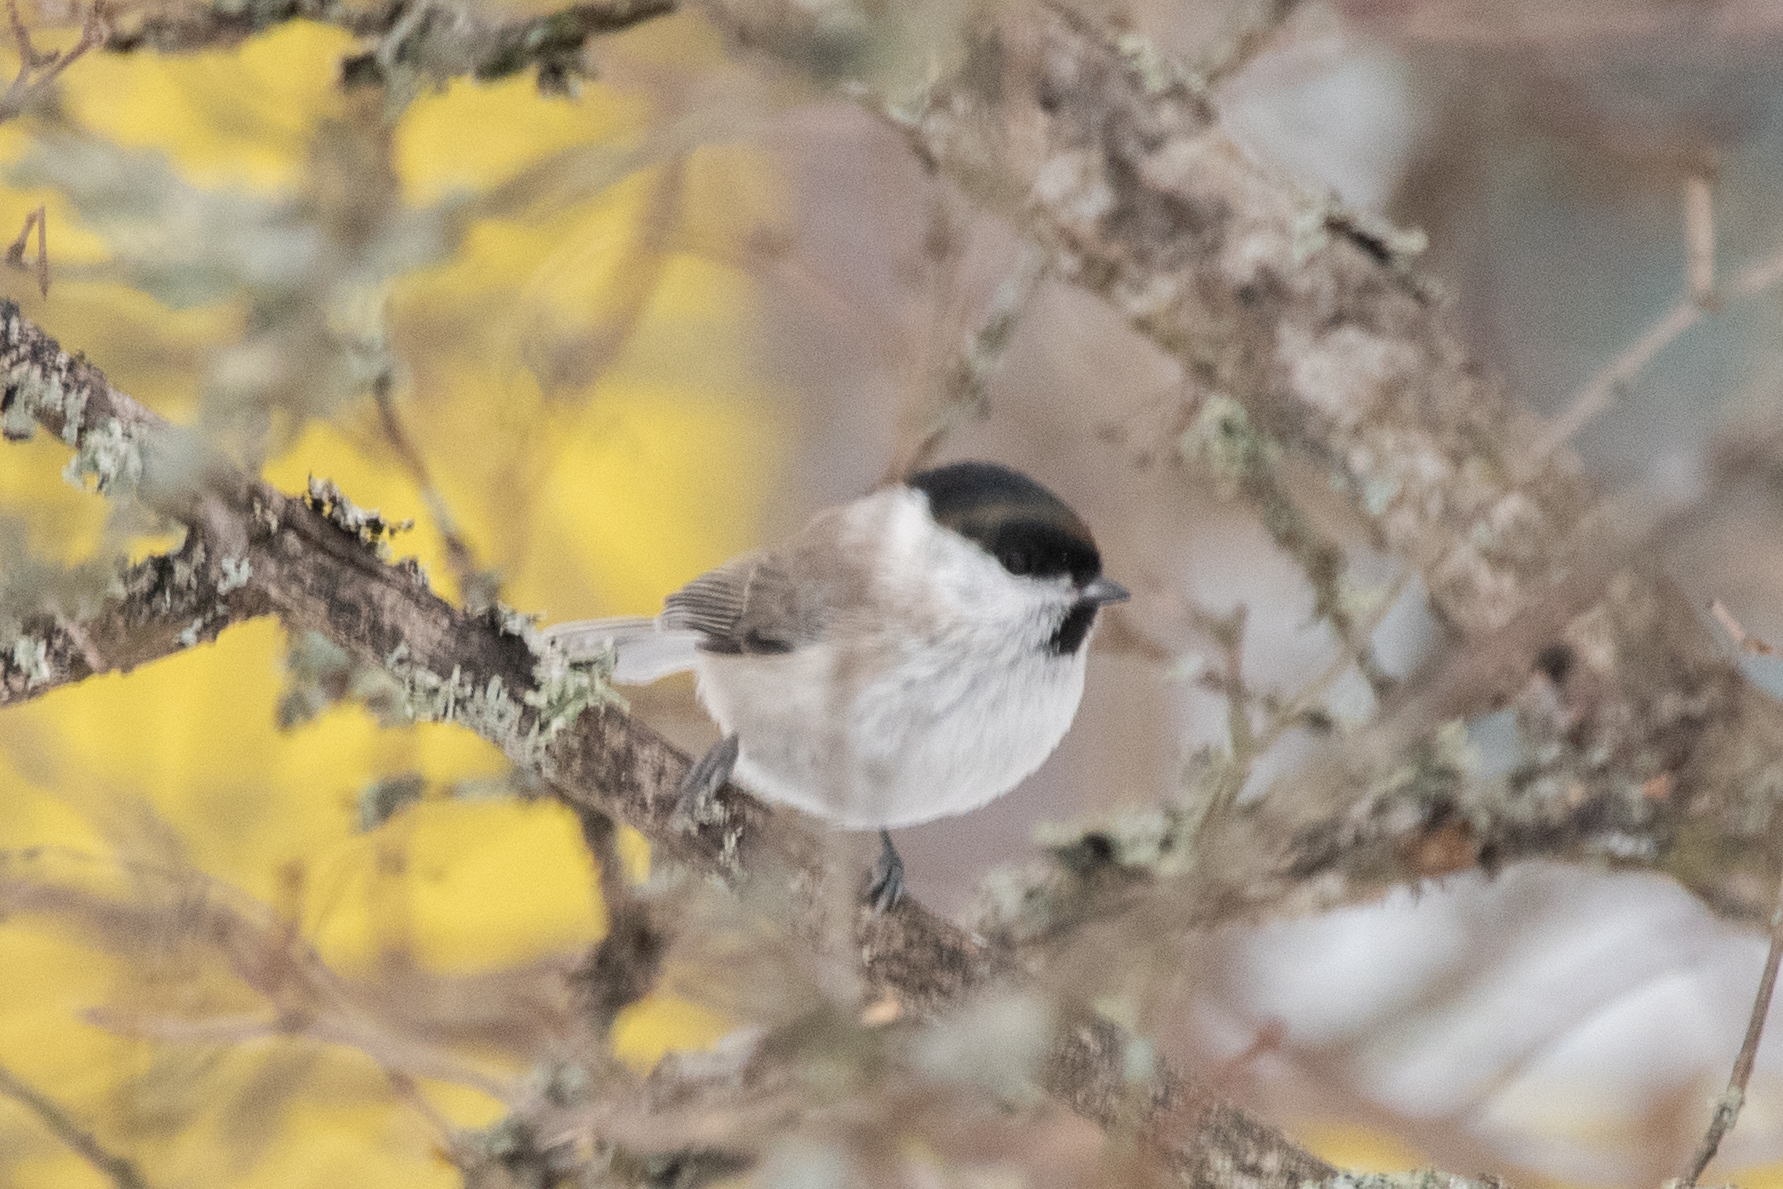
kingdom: Animalia
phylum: Chordata
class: Aves
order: Passeriformes
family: Paridae
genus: Poecile
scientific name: Poecile palustris
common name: Marsh tit
